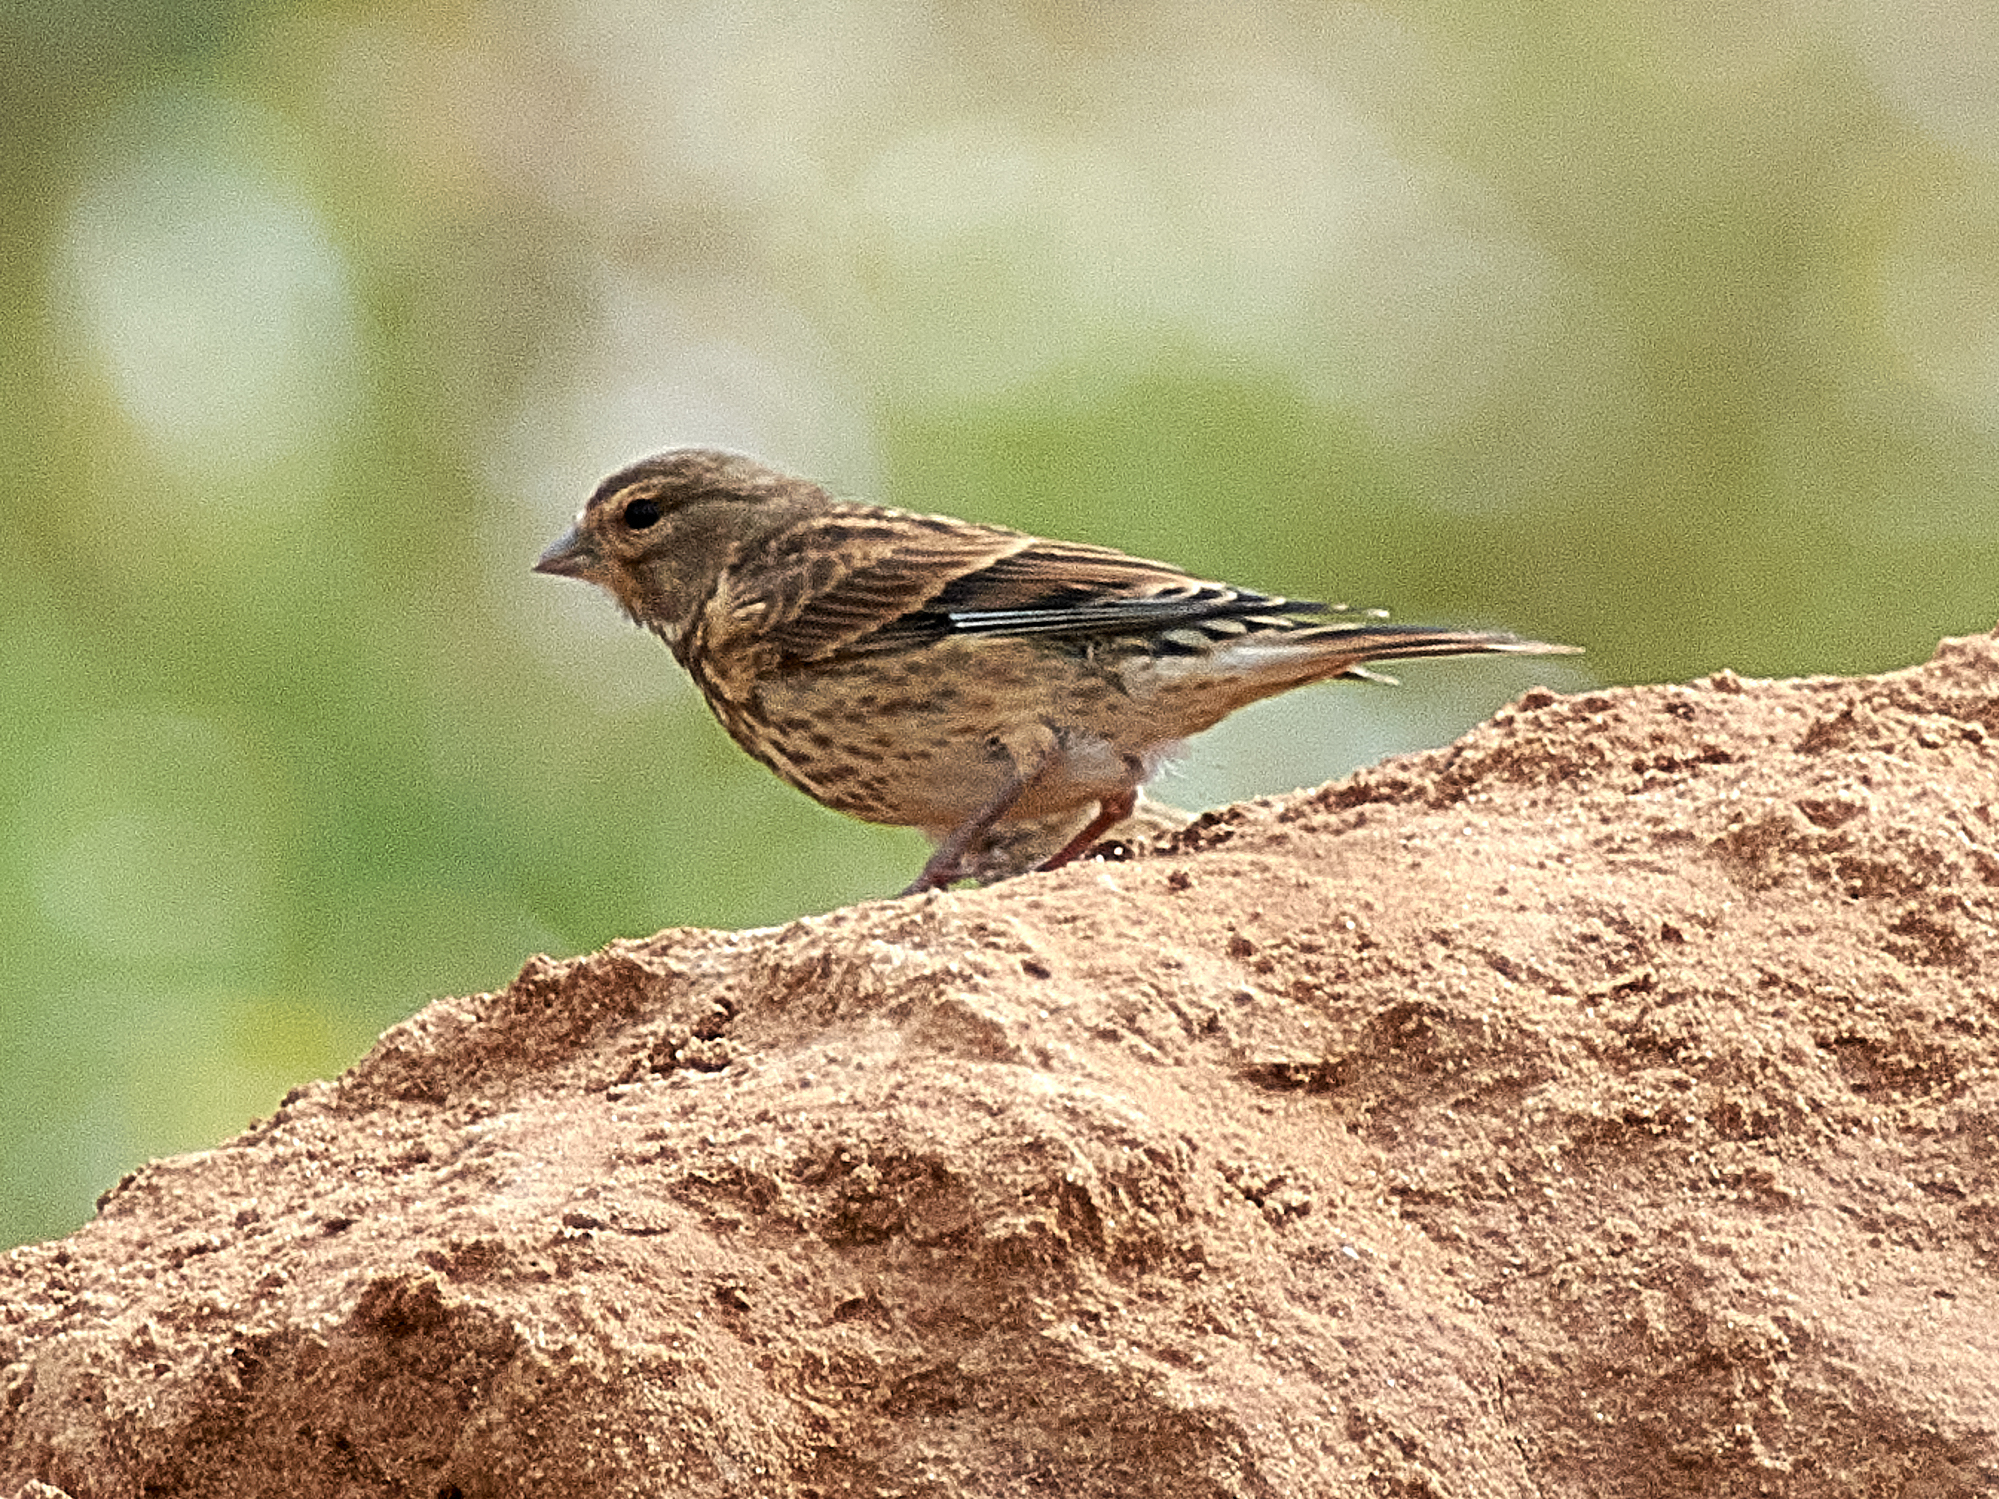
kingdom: Animalia
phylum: Chordata
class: Aves
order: Passeriformes
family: Fringillidae
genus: Linaria
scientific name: Linaria cannabina
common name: Common linnet
